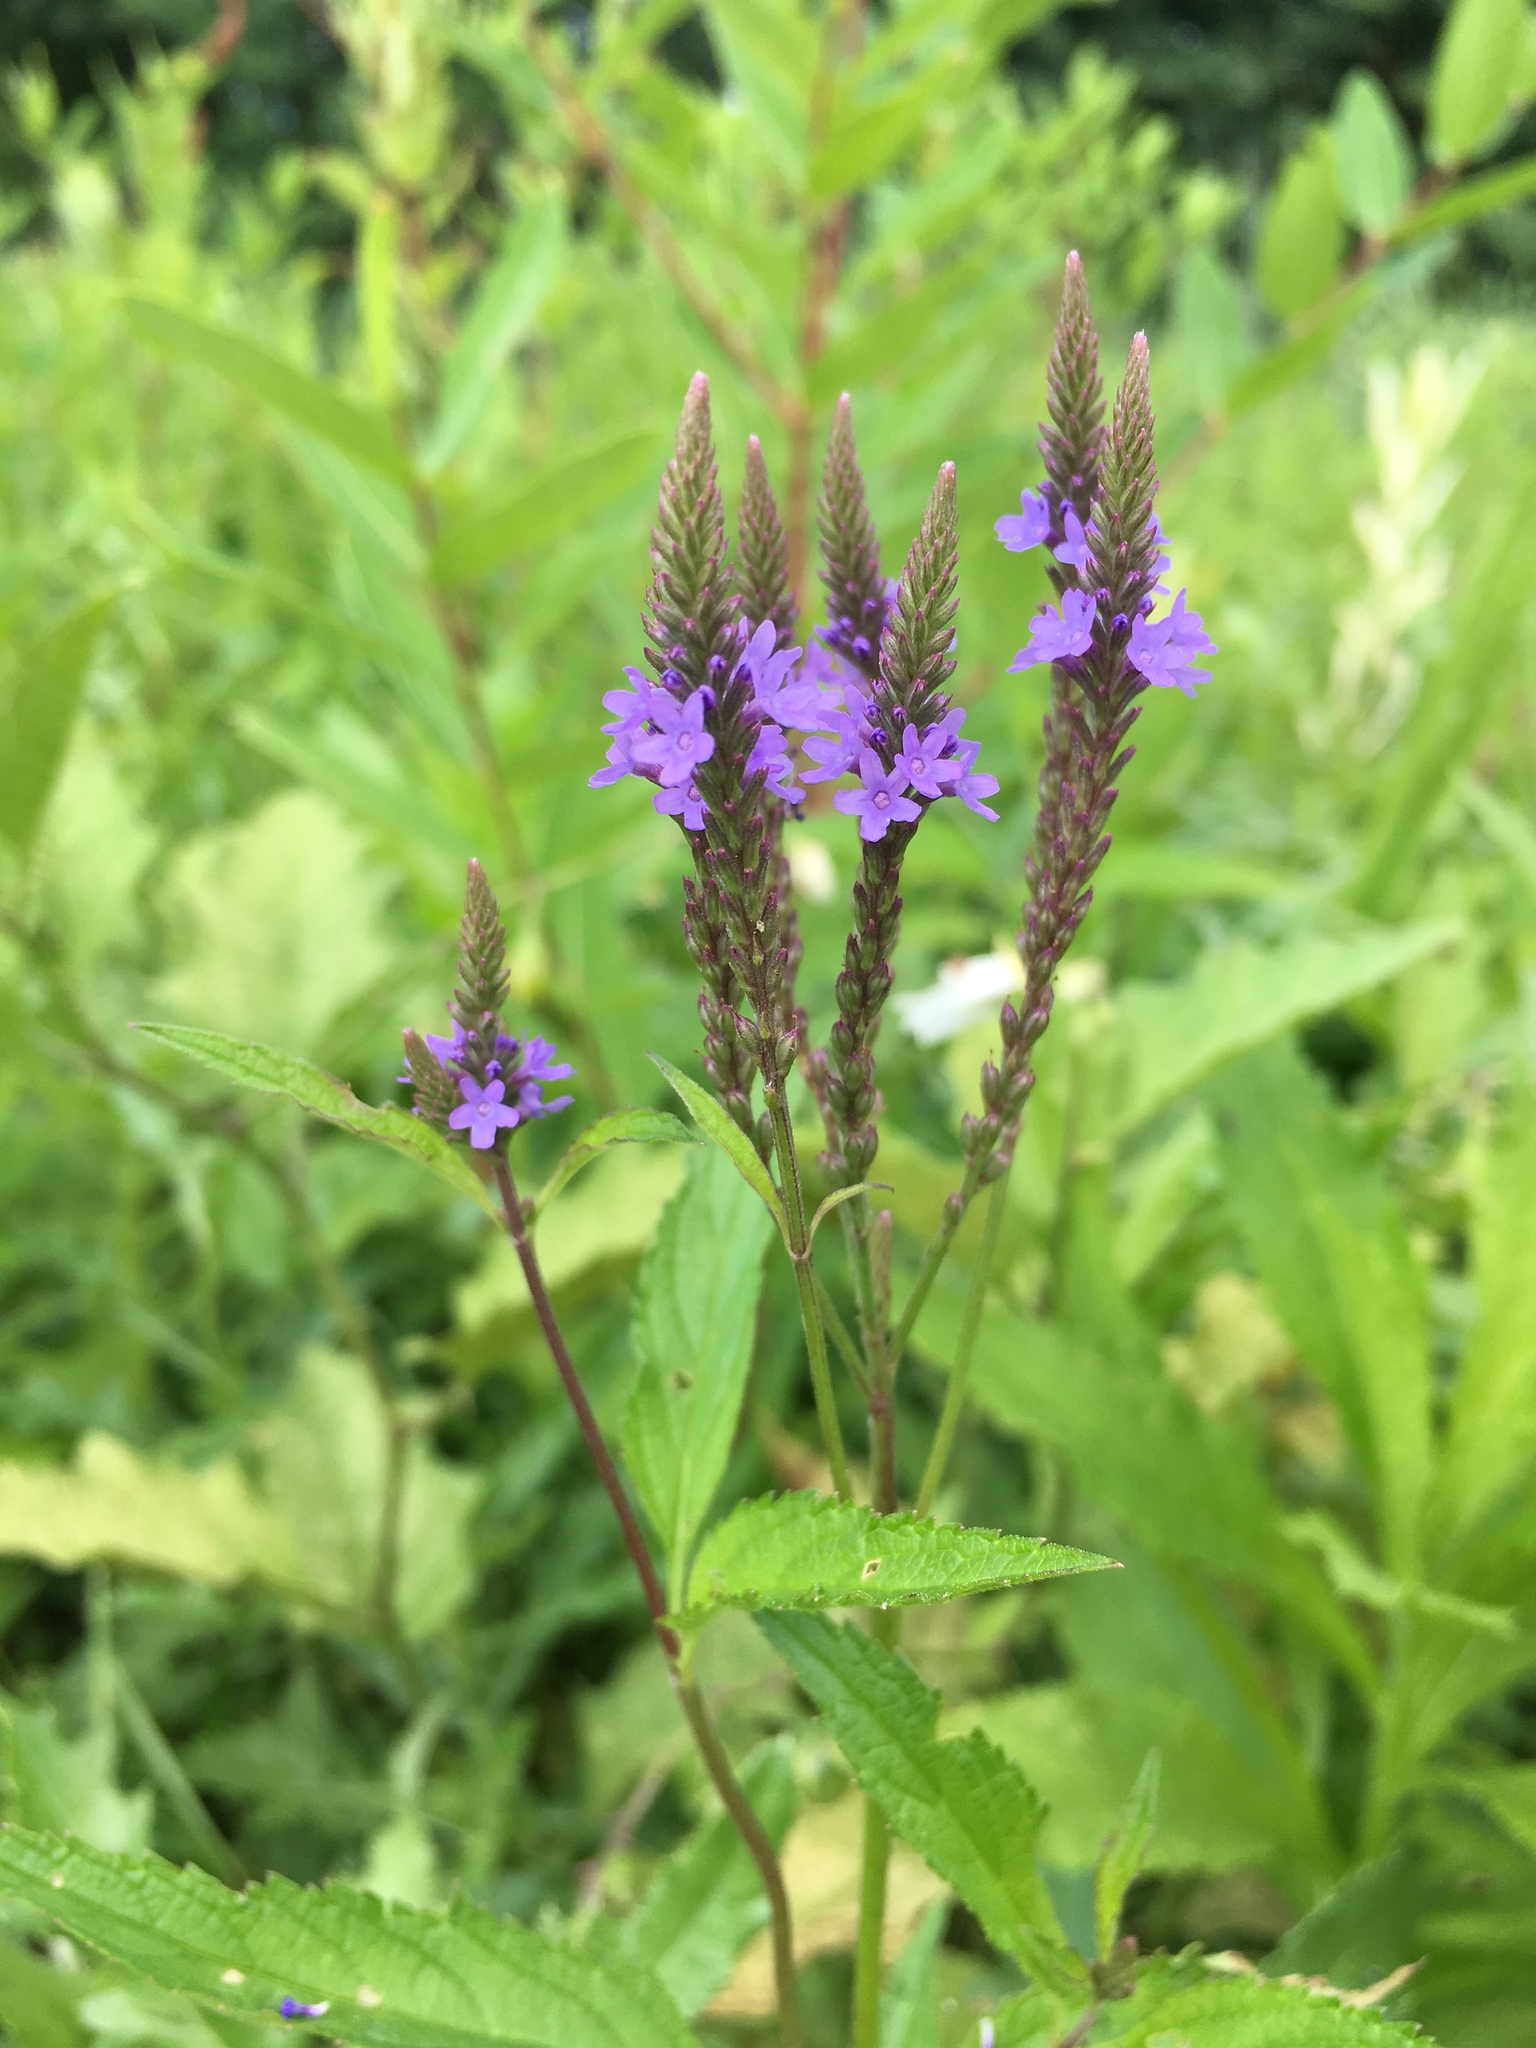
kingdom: Plantae
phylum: Tracheophyta
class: Magnoliopsida
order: Lamiales
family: Verbenaceae
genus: Verbena
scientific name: Verbena hastata
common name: American blue vervain
